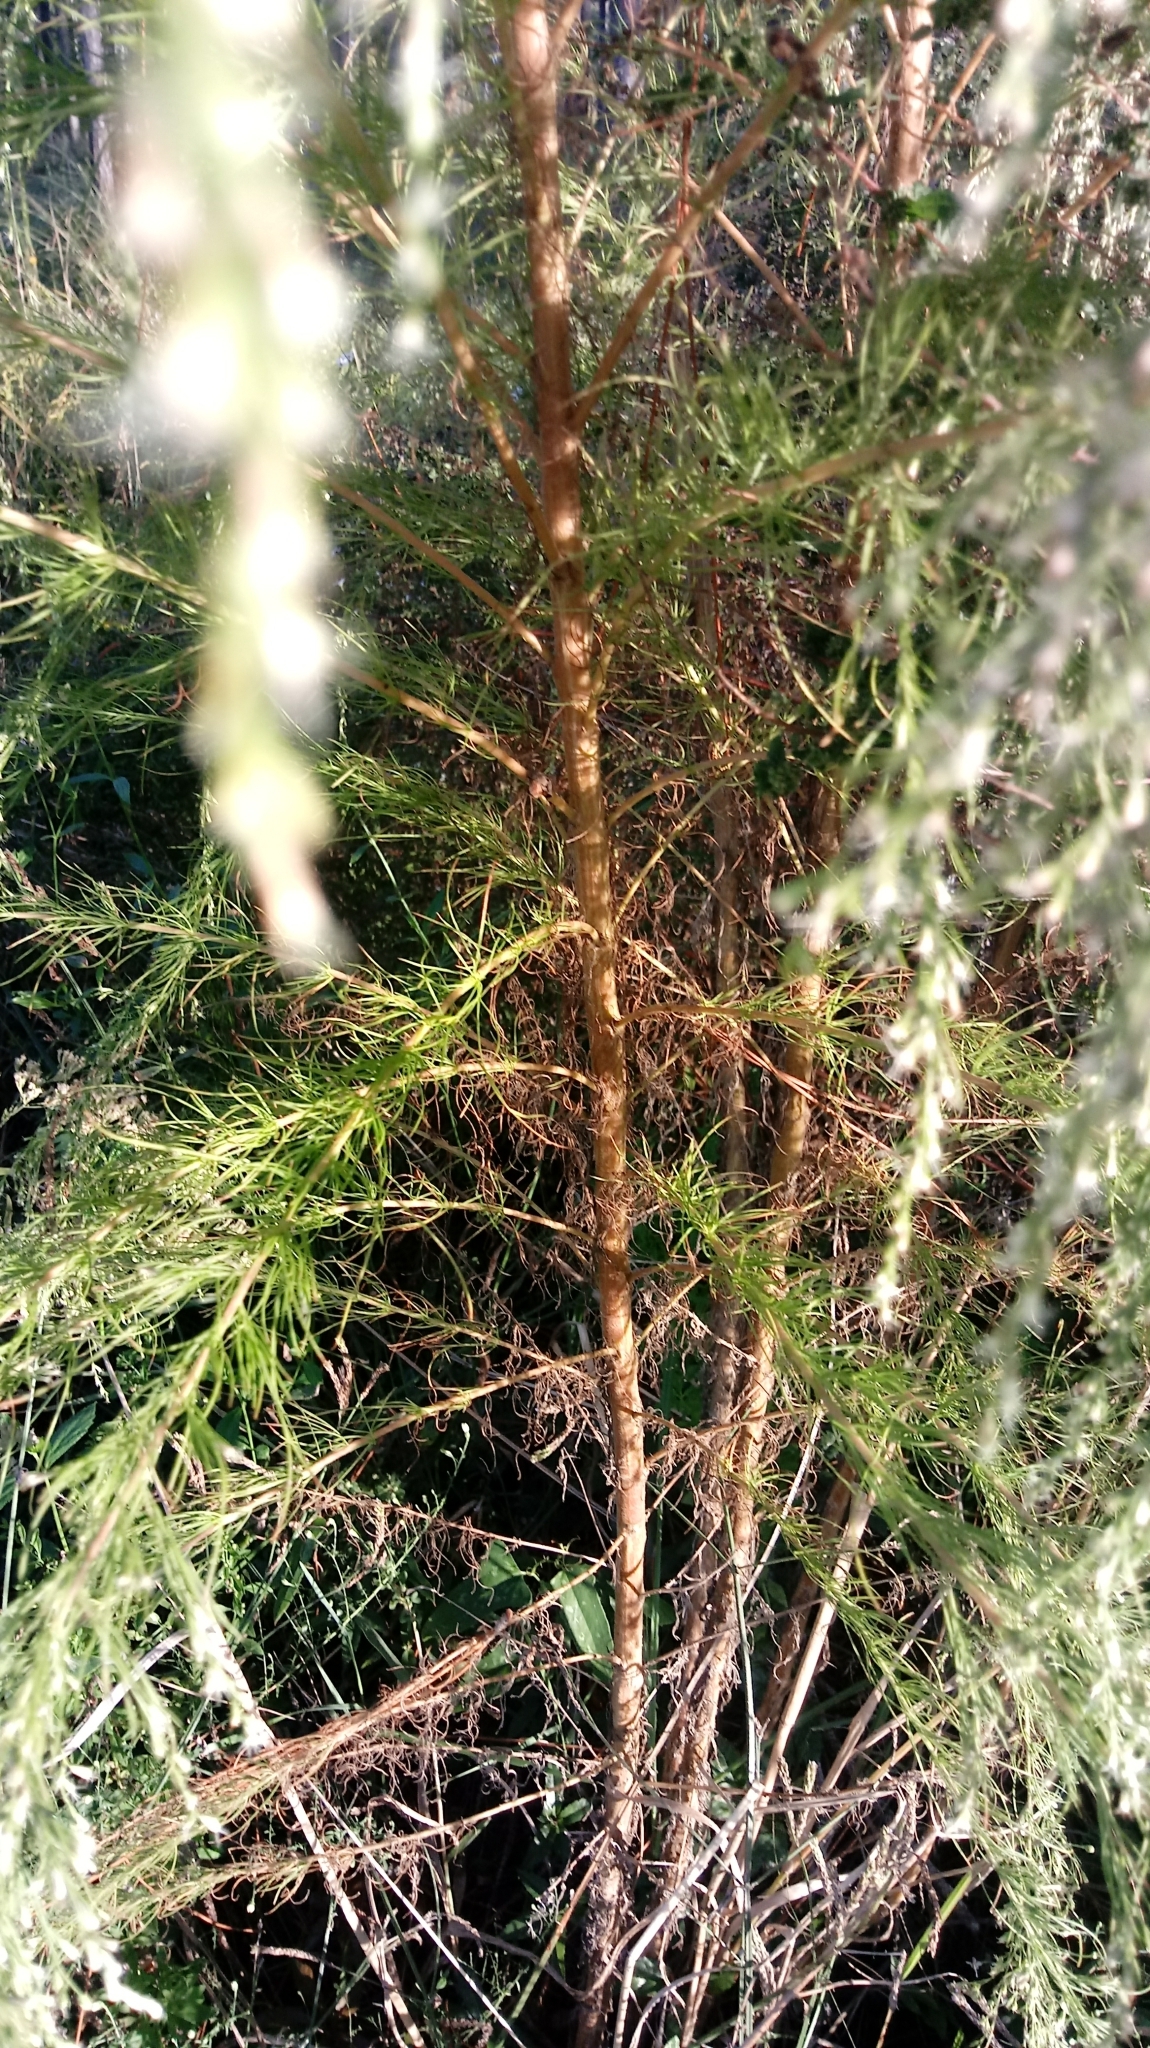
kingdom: Plantae
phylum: Tracheophyta
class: Magnoliopsida
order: Asterales
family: Asteraceae
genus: Eupatorium
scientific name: Eupatorium capillifolium
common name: Dog-fennel
